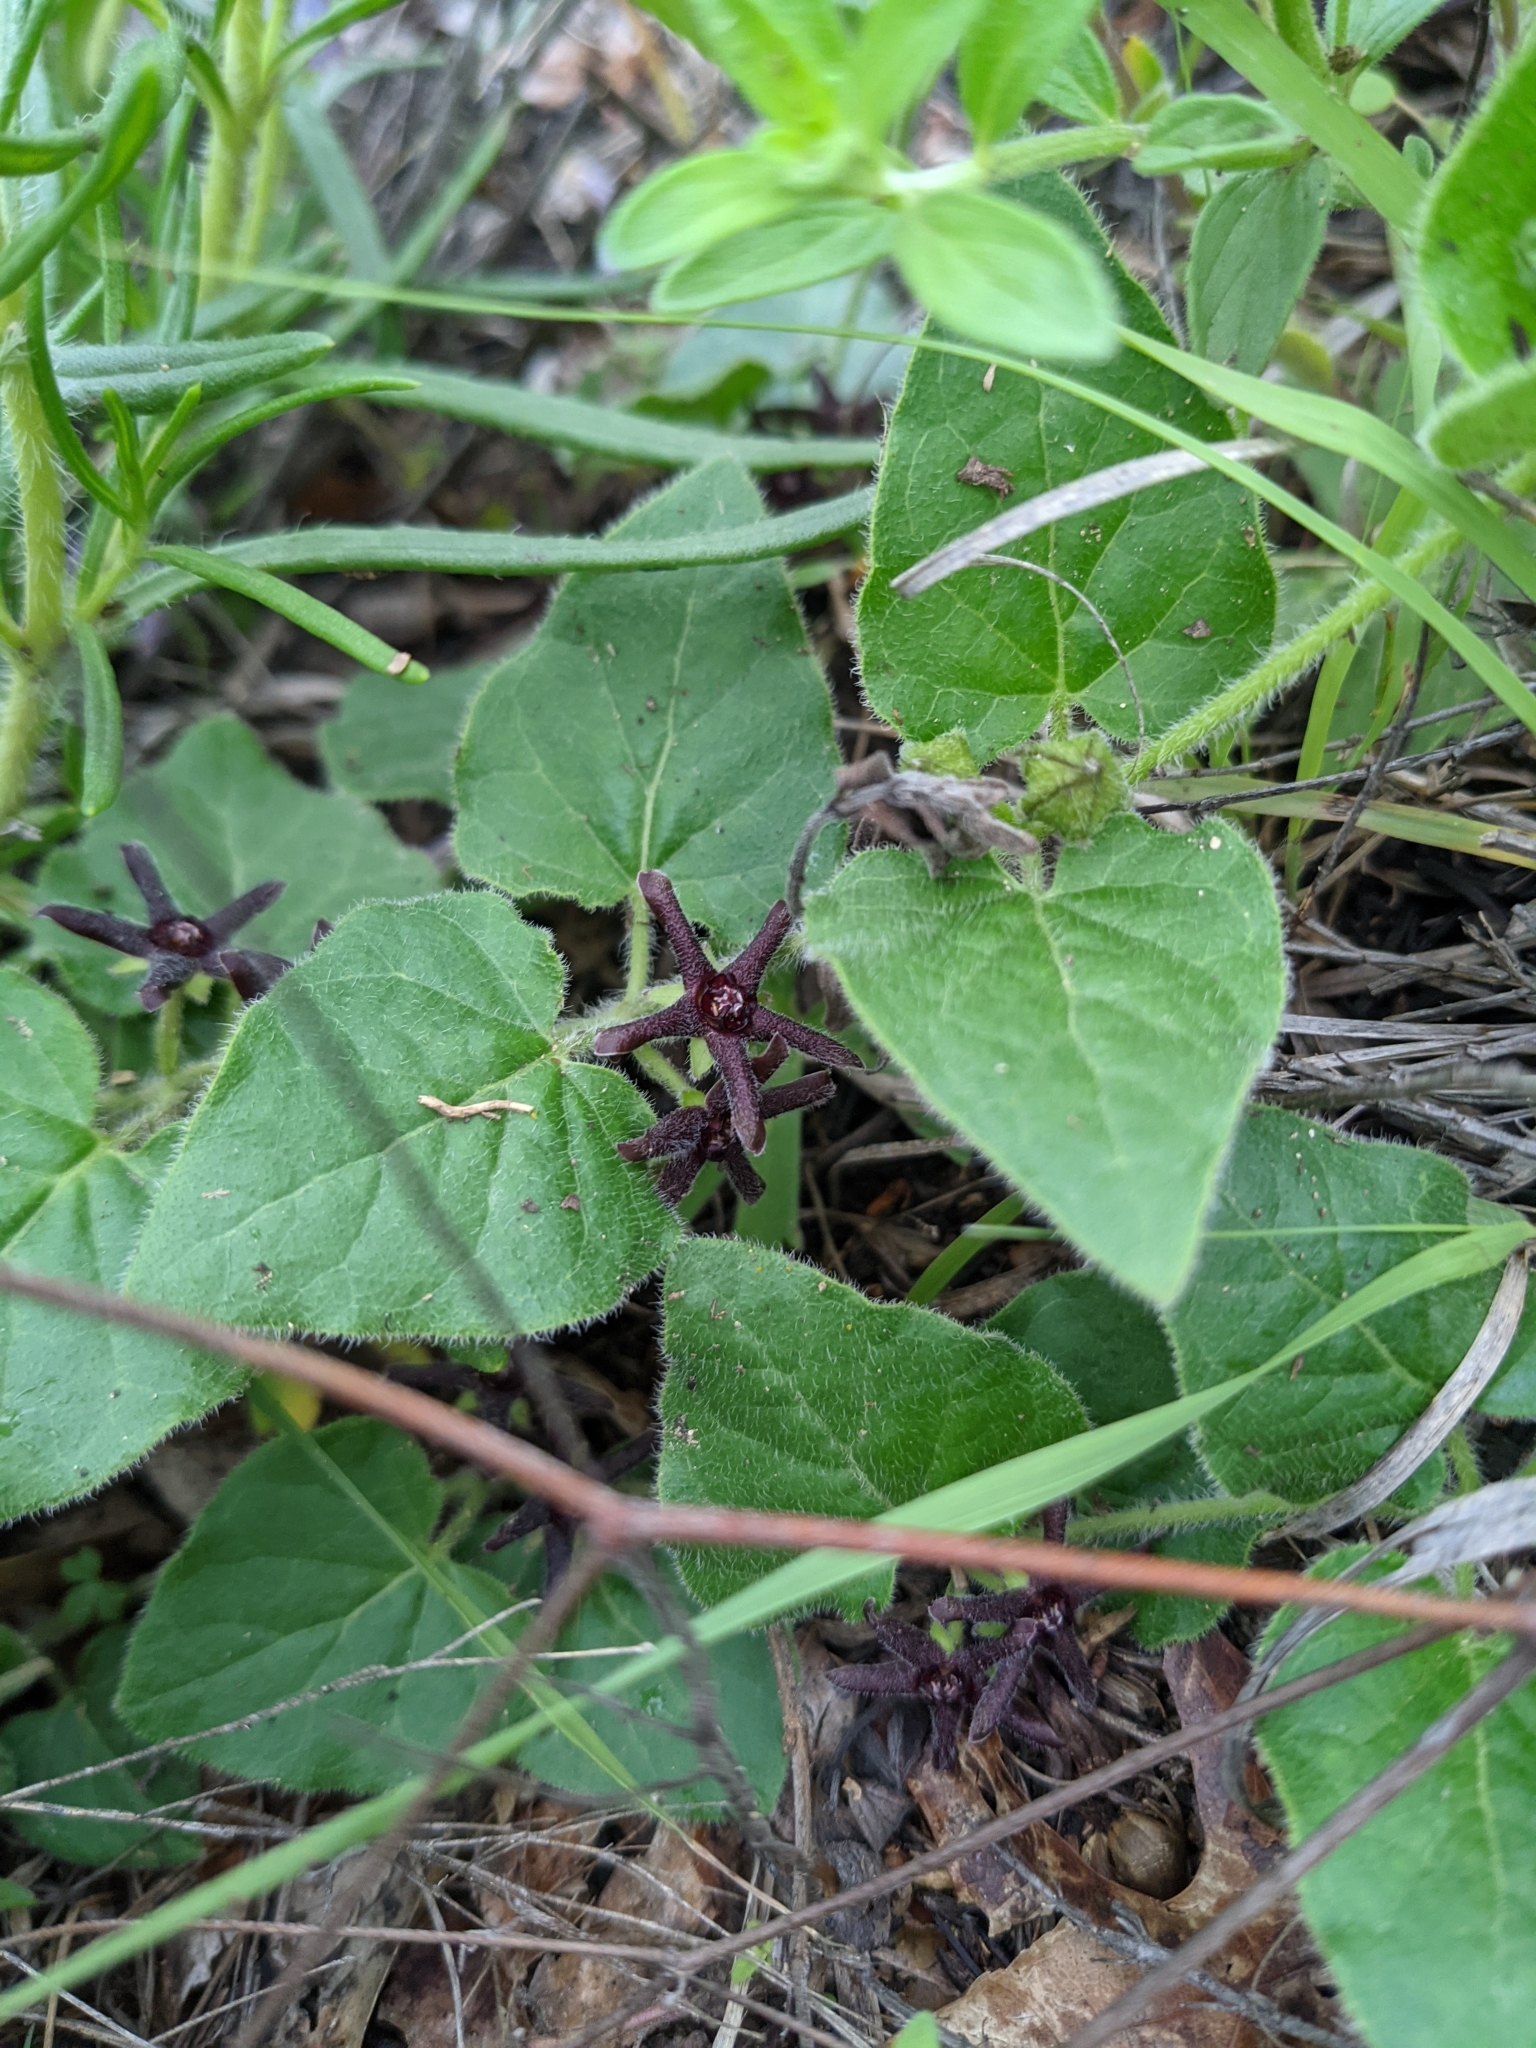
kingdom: Plantae
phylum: Tracheophyta
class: Magnoliopsida
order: Gentianales
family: Apocynaceae
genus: Chthamalia
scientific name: Chthamalia biflora
